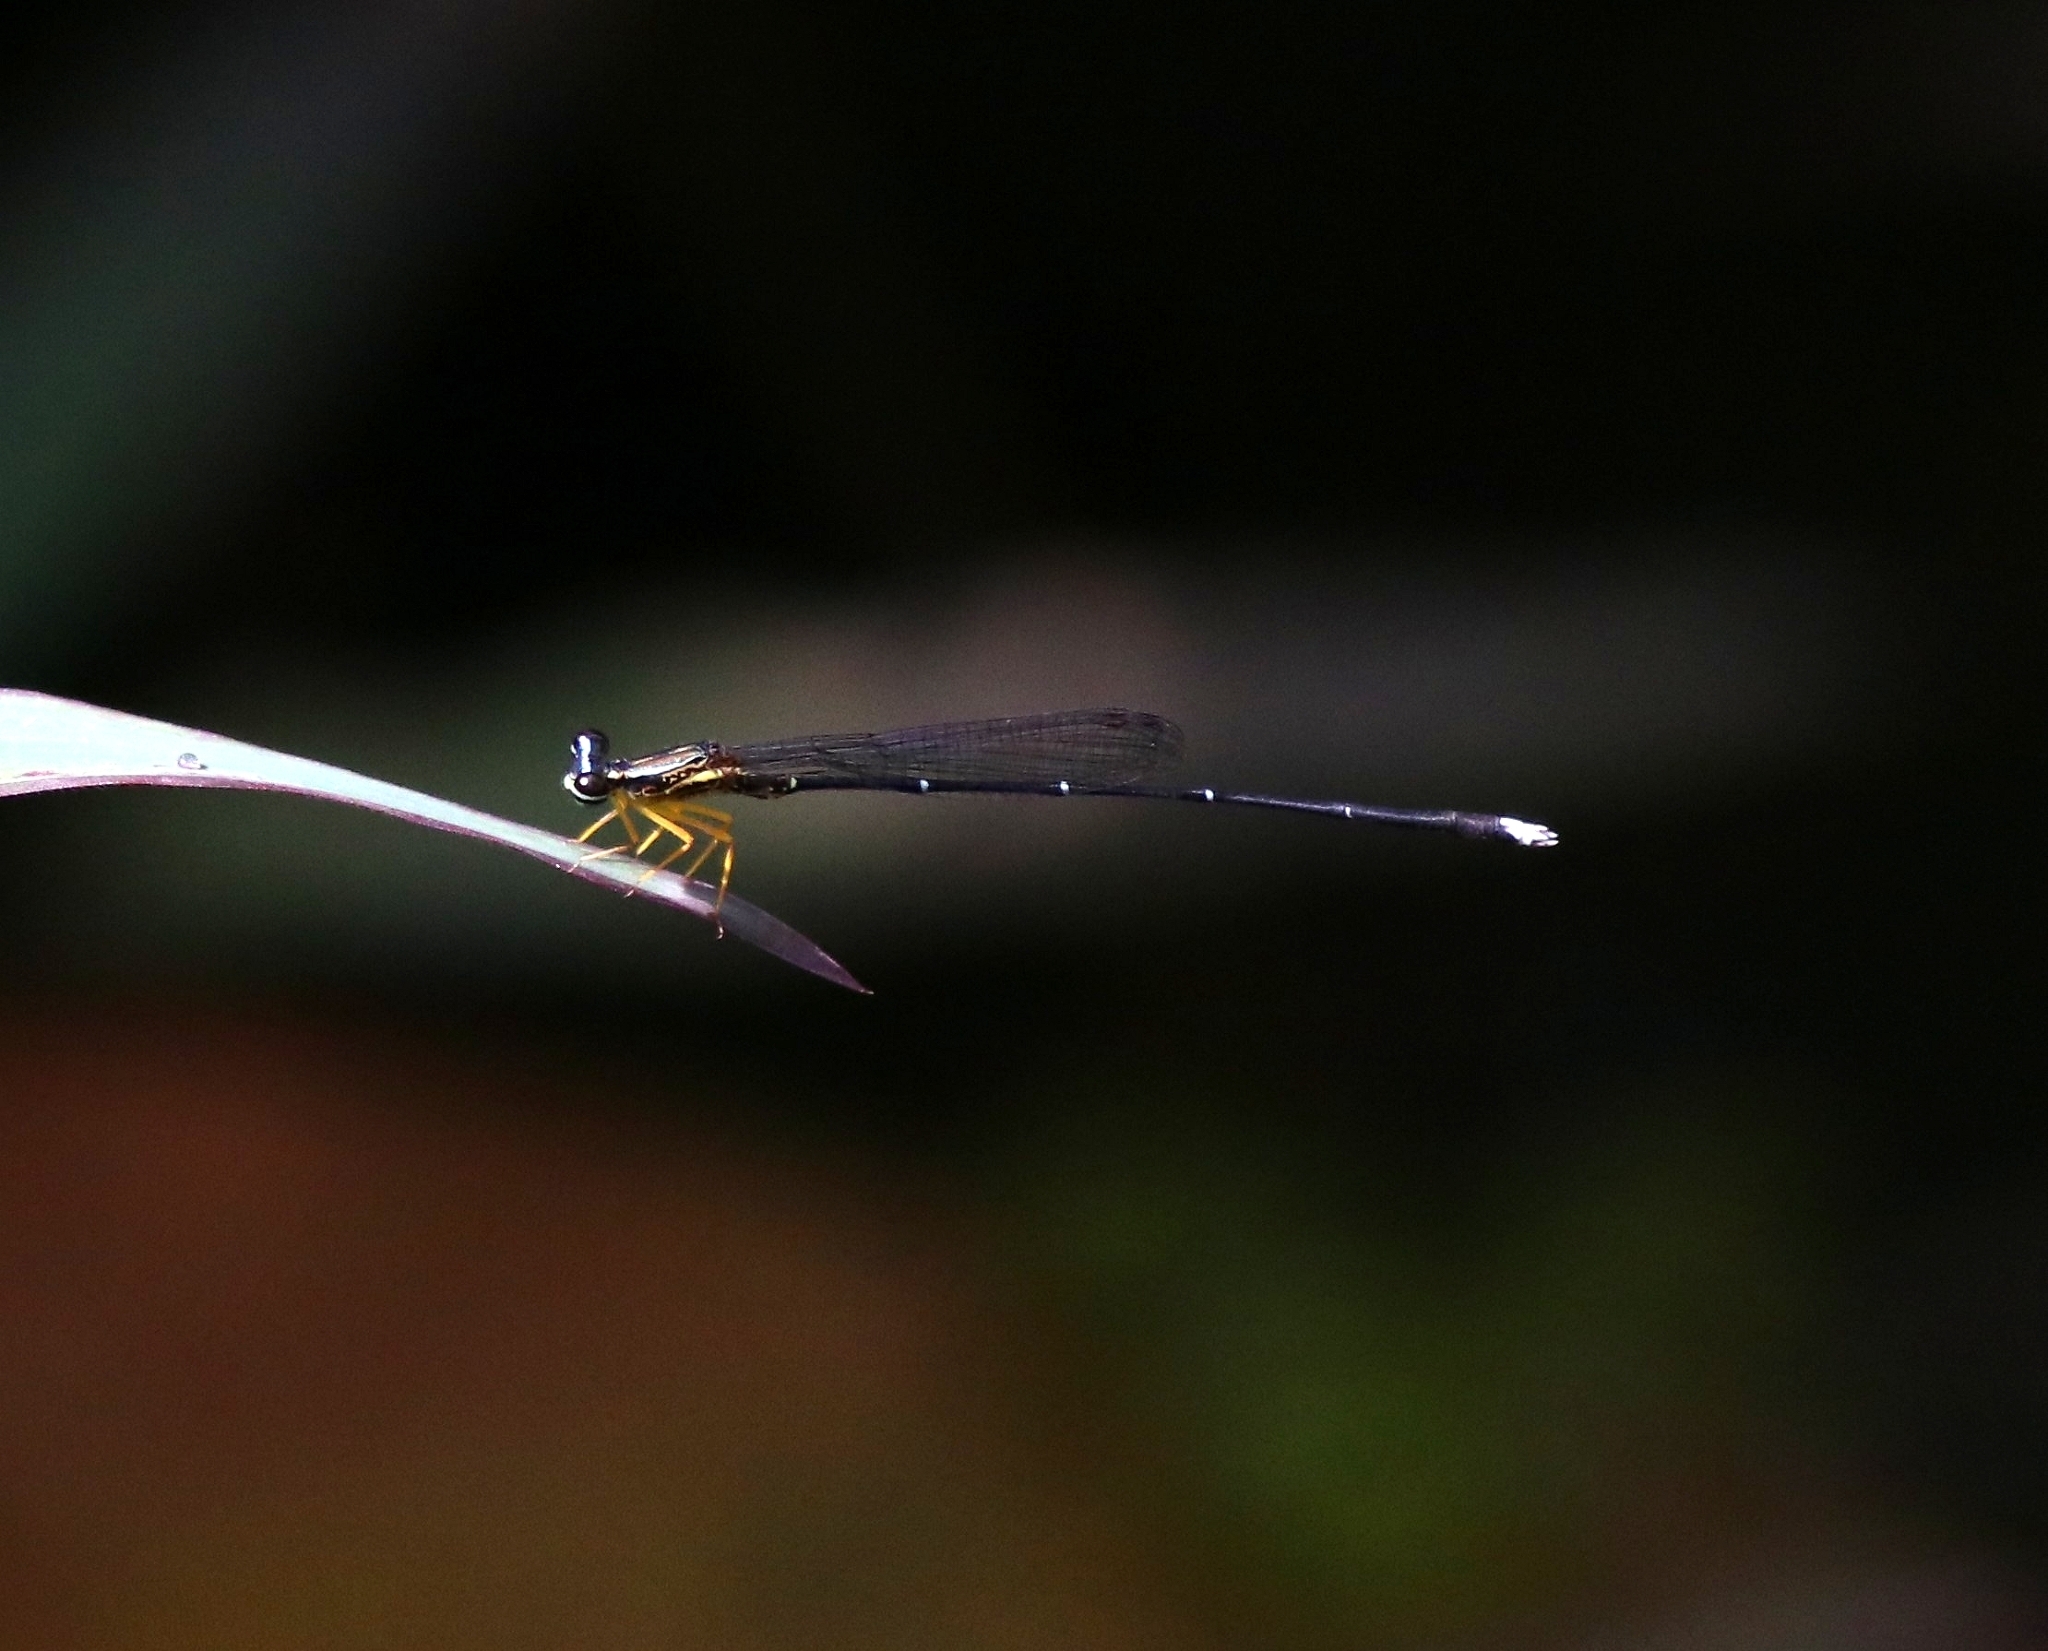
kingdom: Animalia
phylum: Arthropoda
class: Insecta
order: Odonata
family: Platycnemididae
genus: Copera
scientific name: Copera vittata
